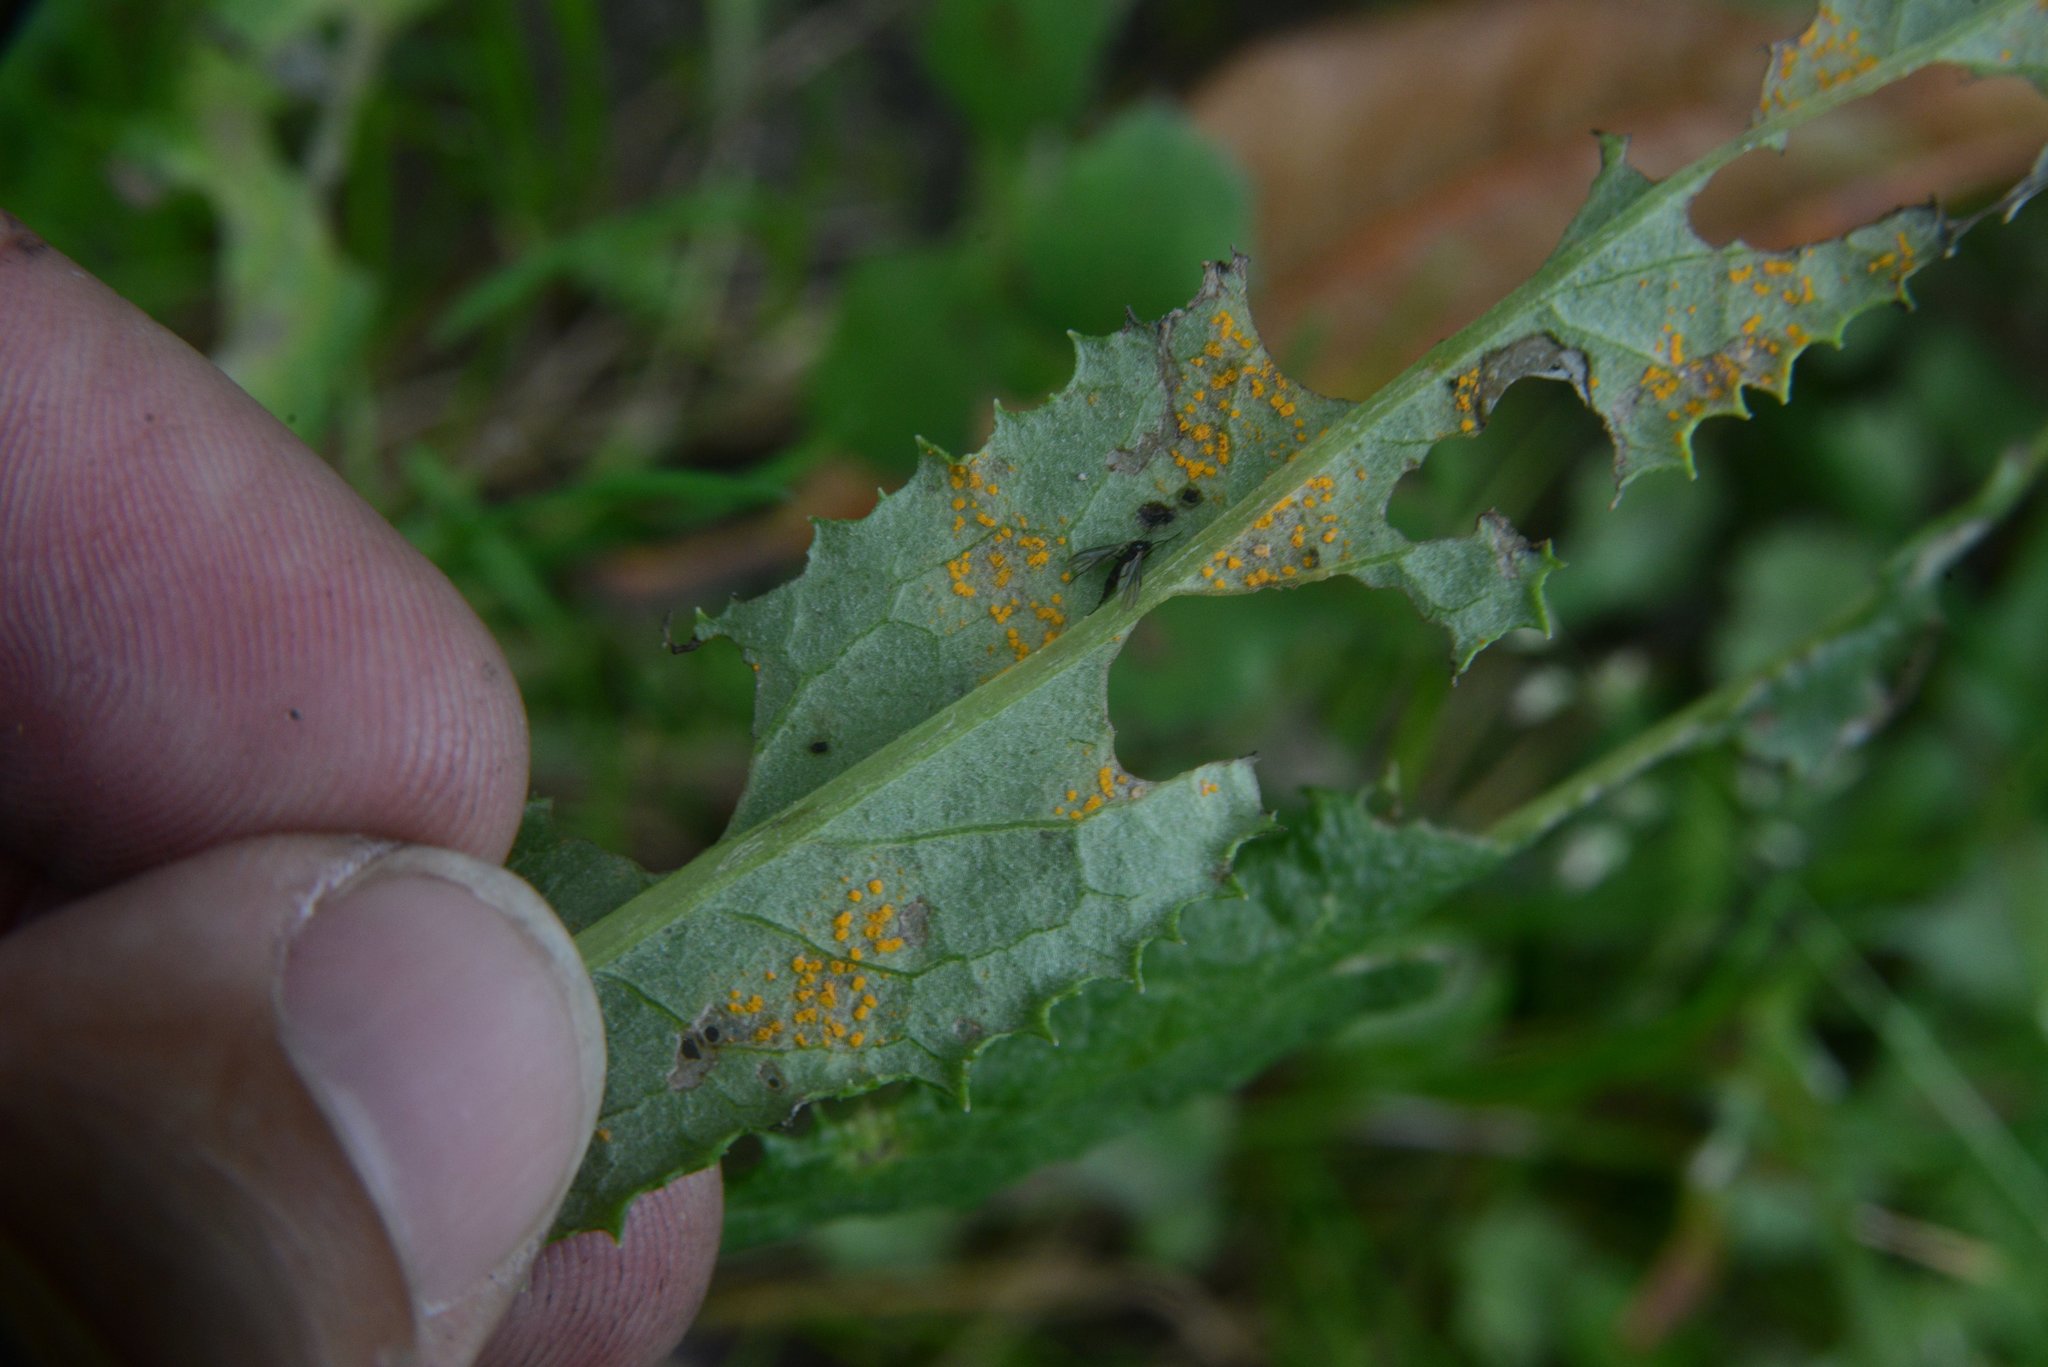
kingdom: Fungi
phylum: Basidiomycota
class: Pucciniomycetes
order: Pucciniales
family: Coleosporiaceae
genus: Coleosporium
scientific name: Coleosporium tussilaginis
